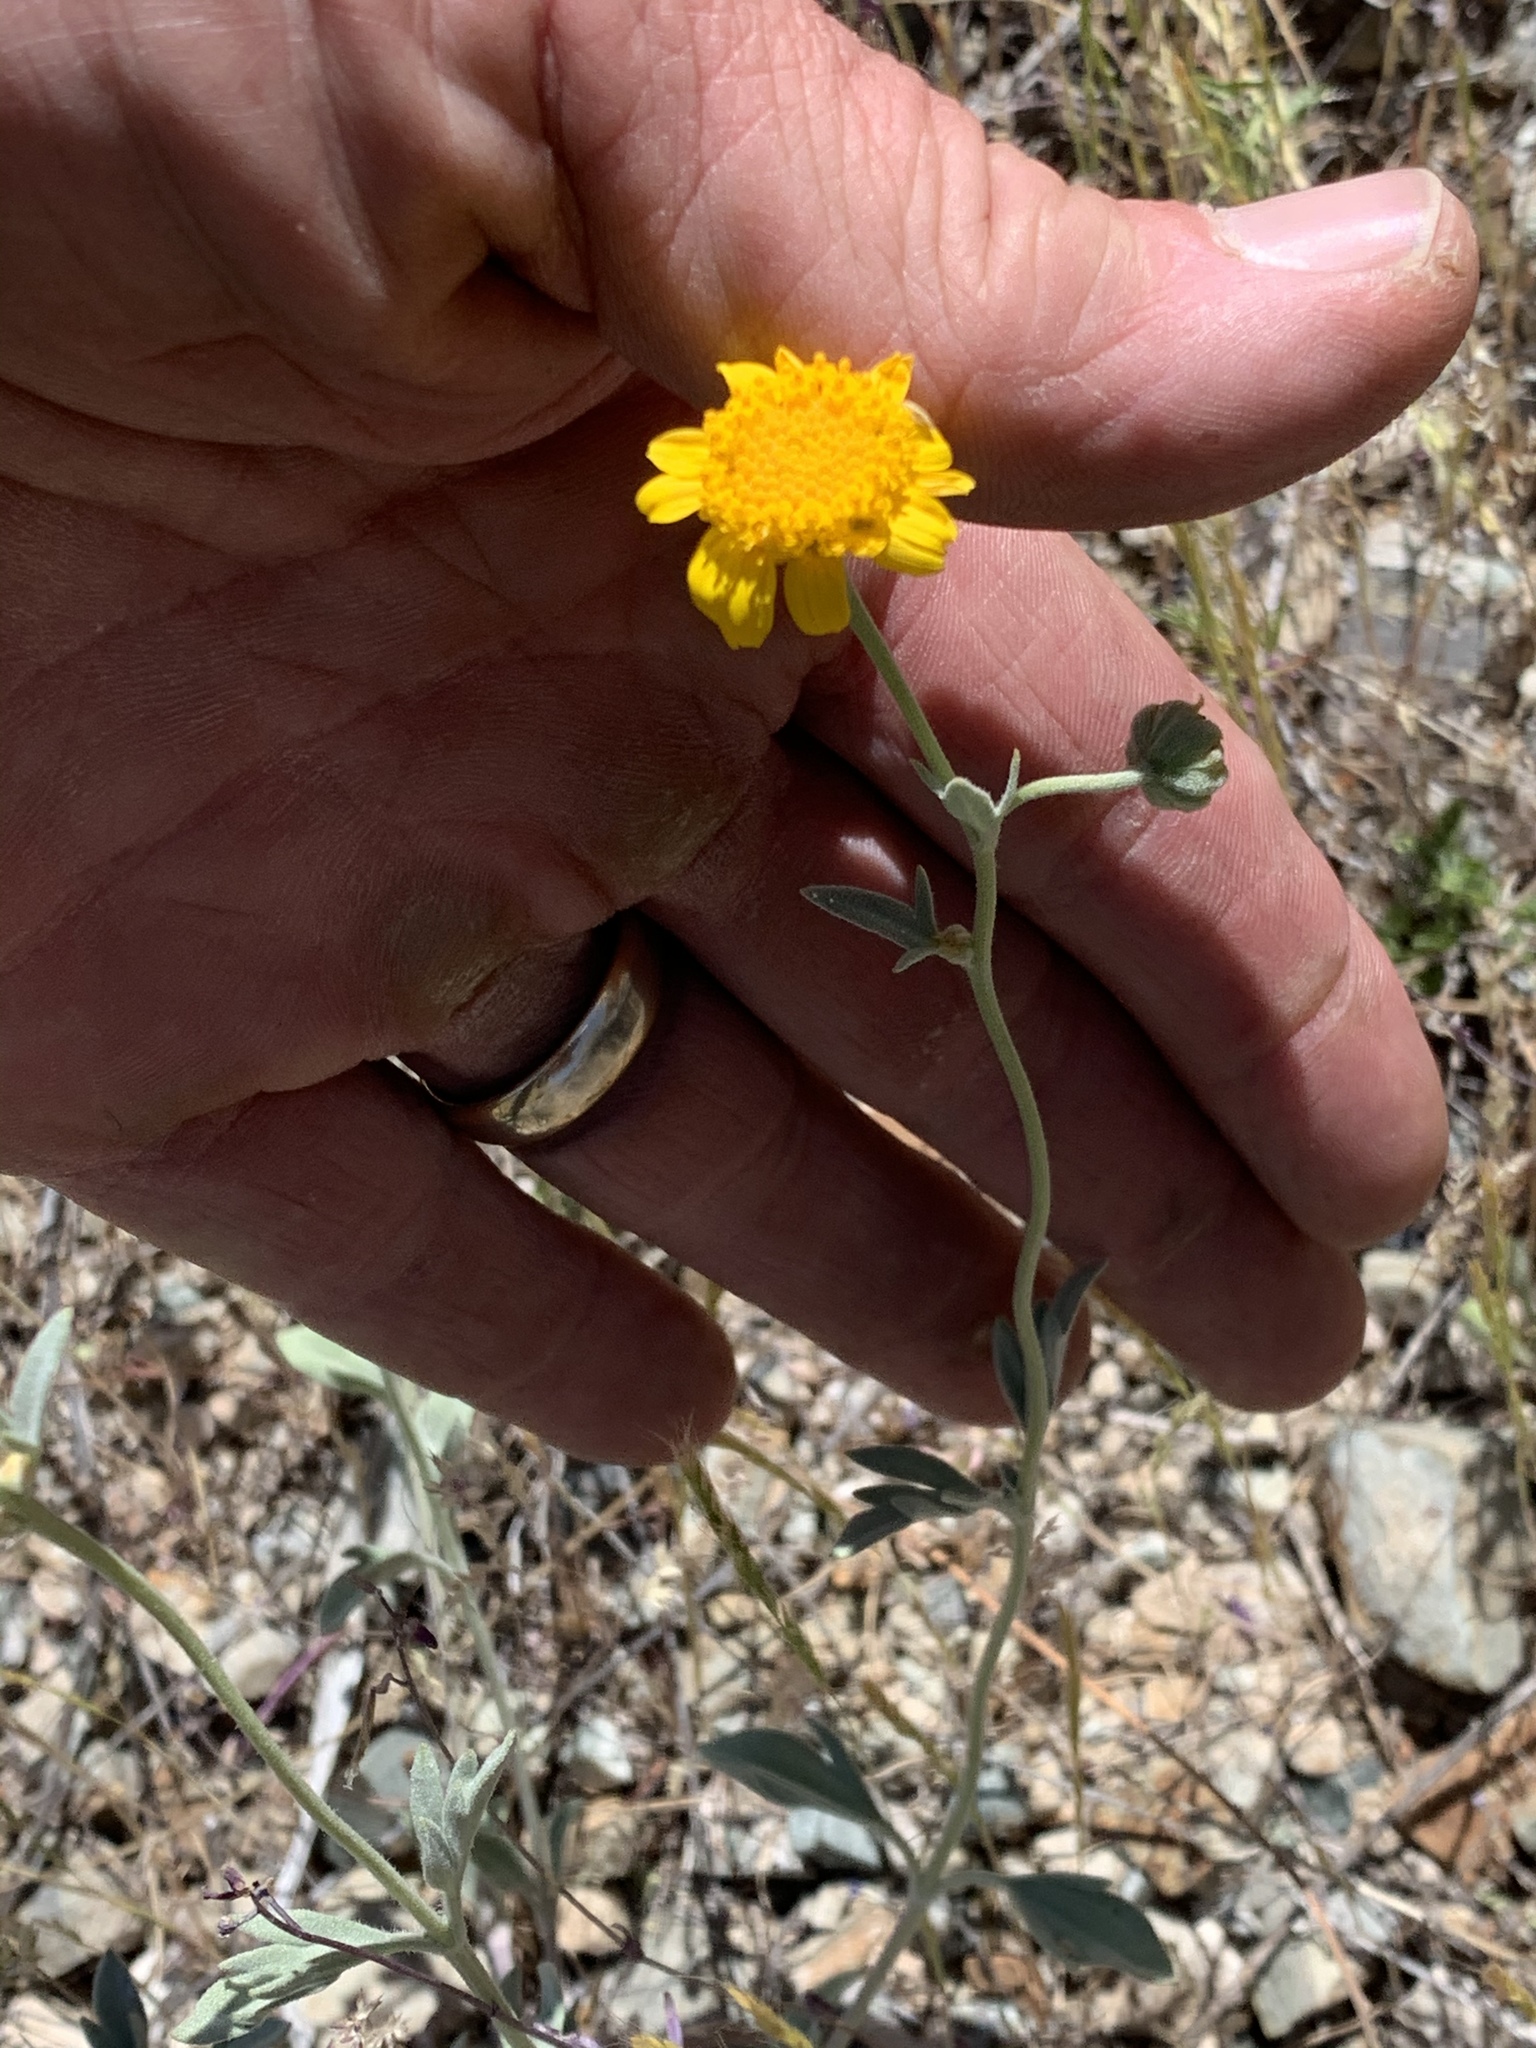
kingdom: Plantae
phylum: Tracheophyta
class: Magnoliopsida
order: Asterales
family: Asteraceae
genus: Picradeniopsis
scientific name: Picradeniopsis absinthifolia
